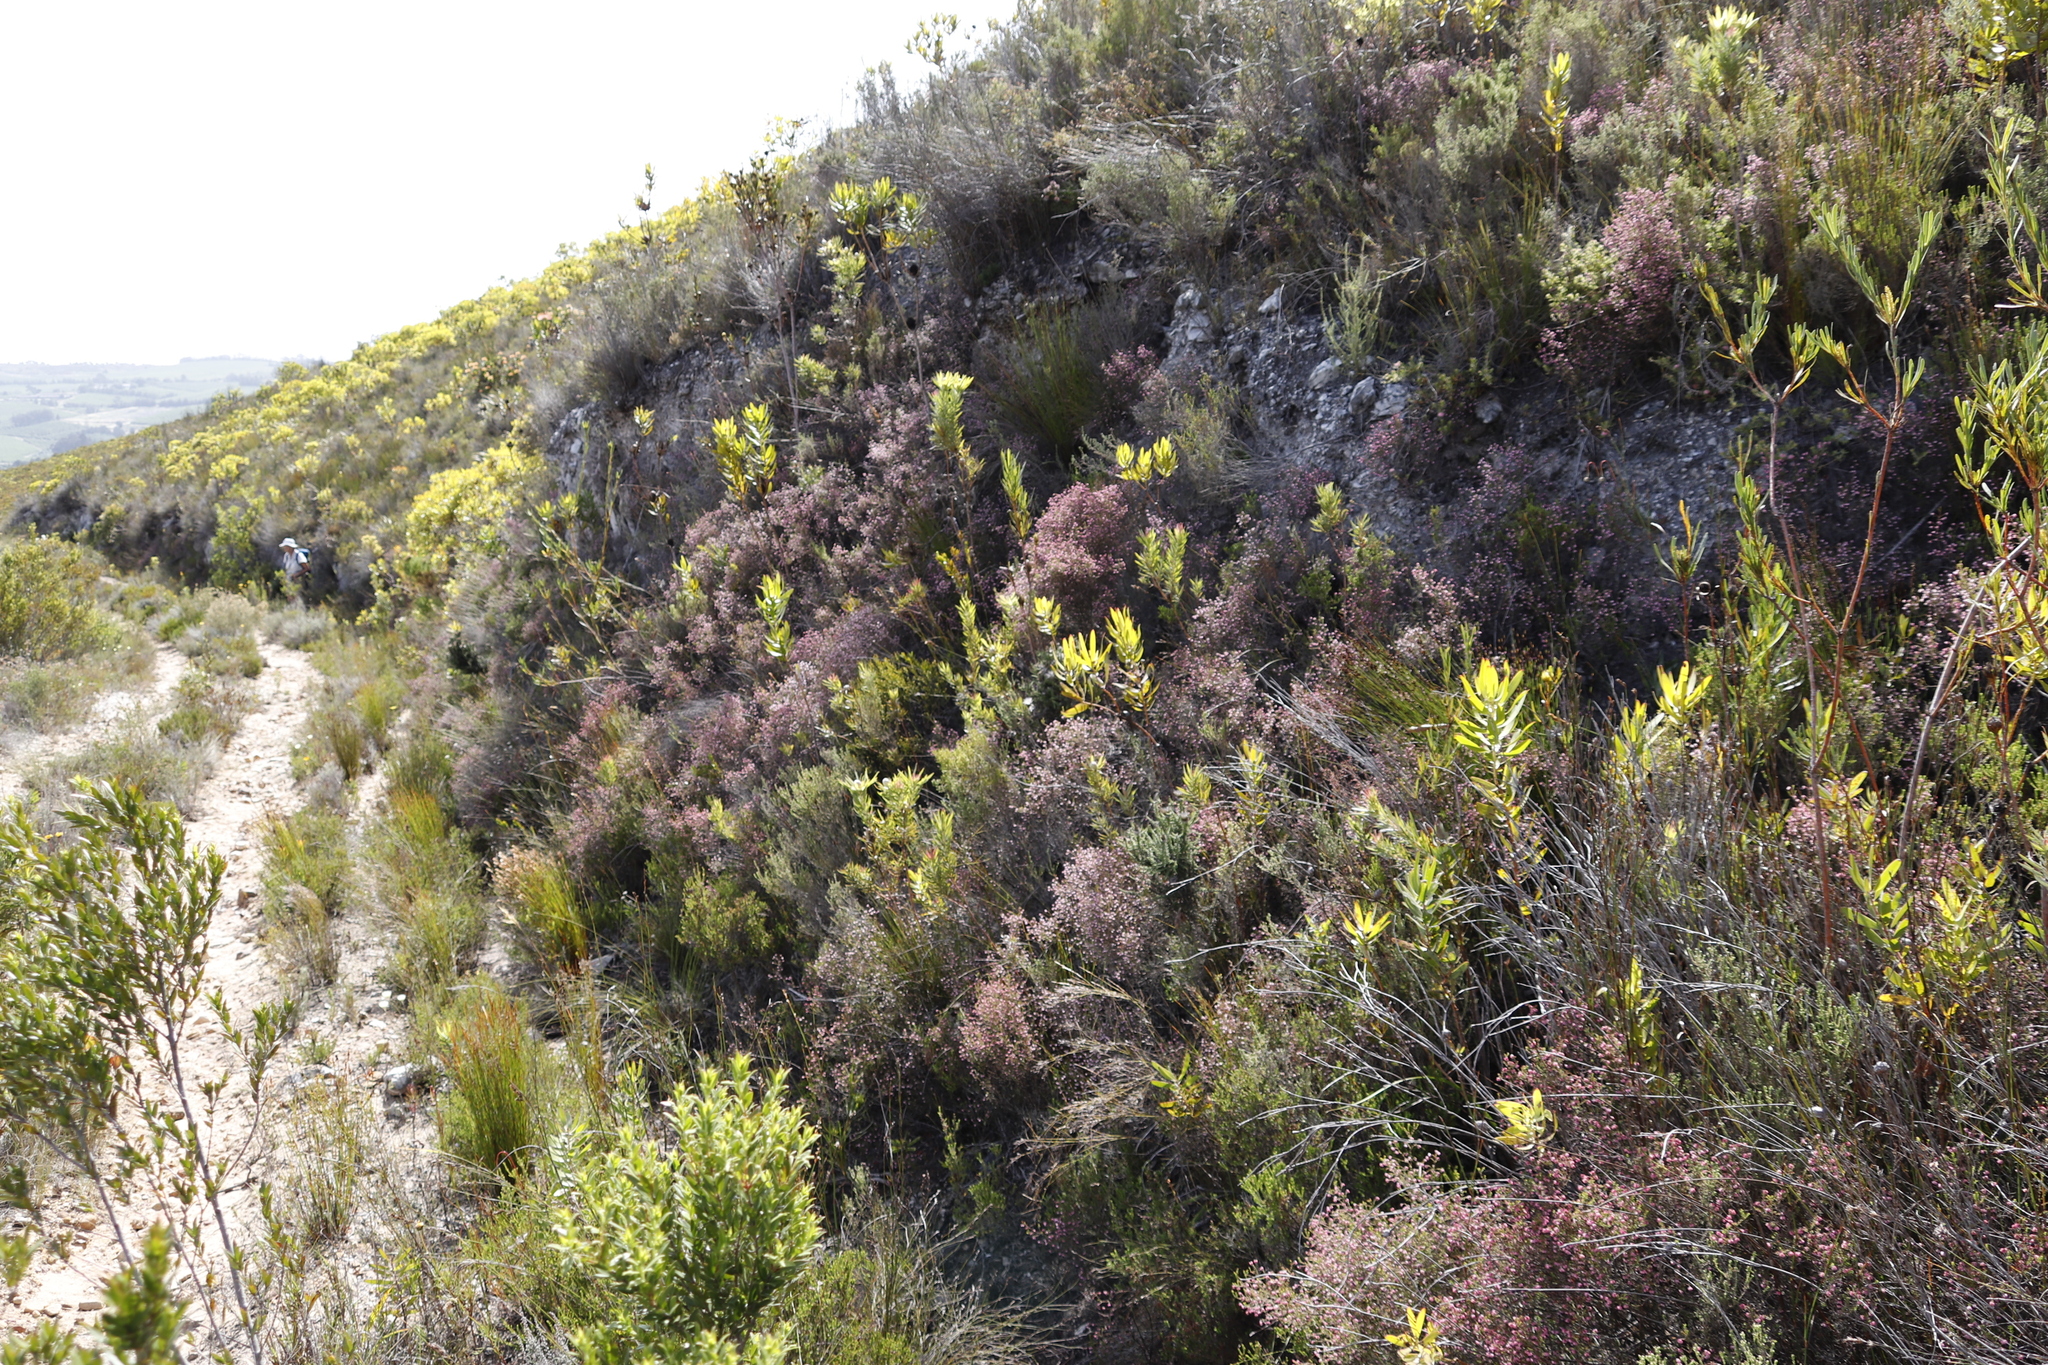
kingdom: Plantae
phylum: Tracheophyta
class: Magnoliopsida
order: Ericales
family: Ericaceae
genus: Erica
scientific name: Erica spumosa
